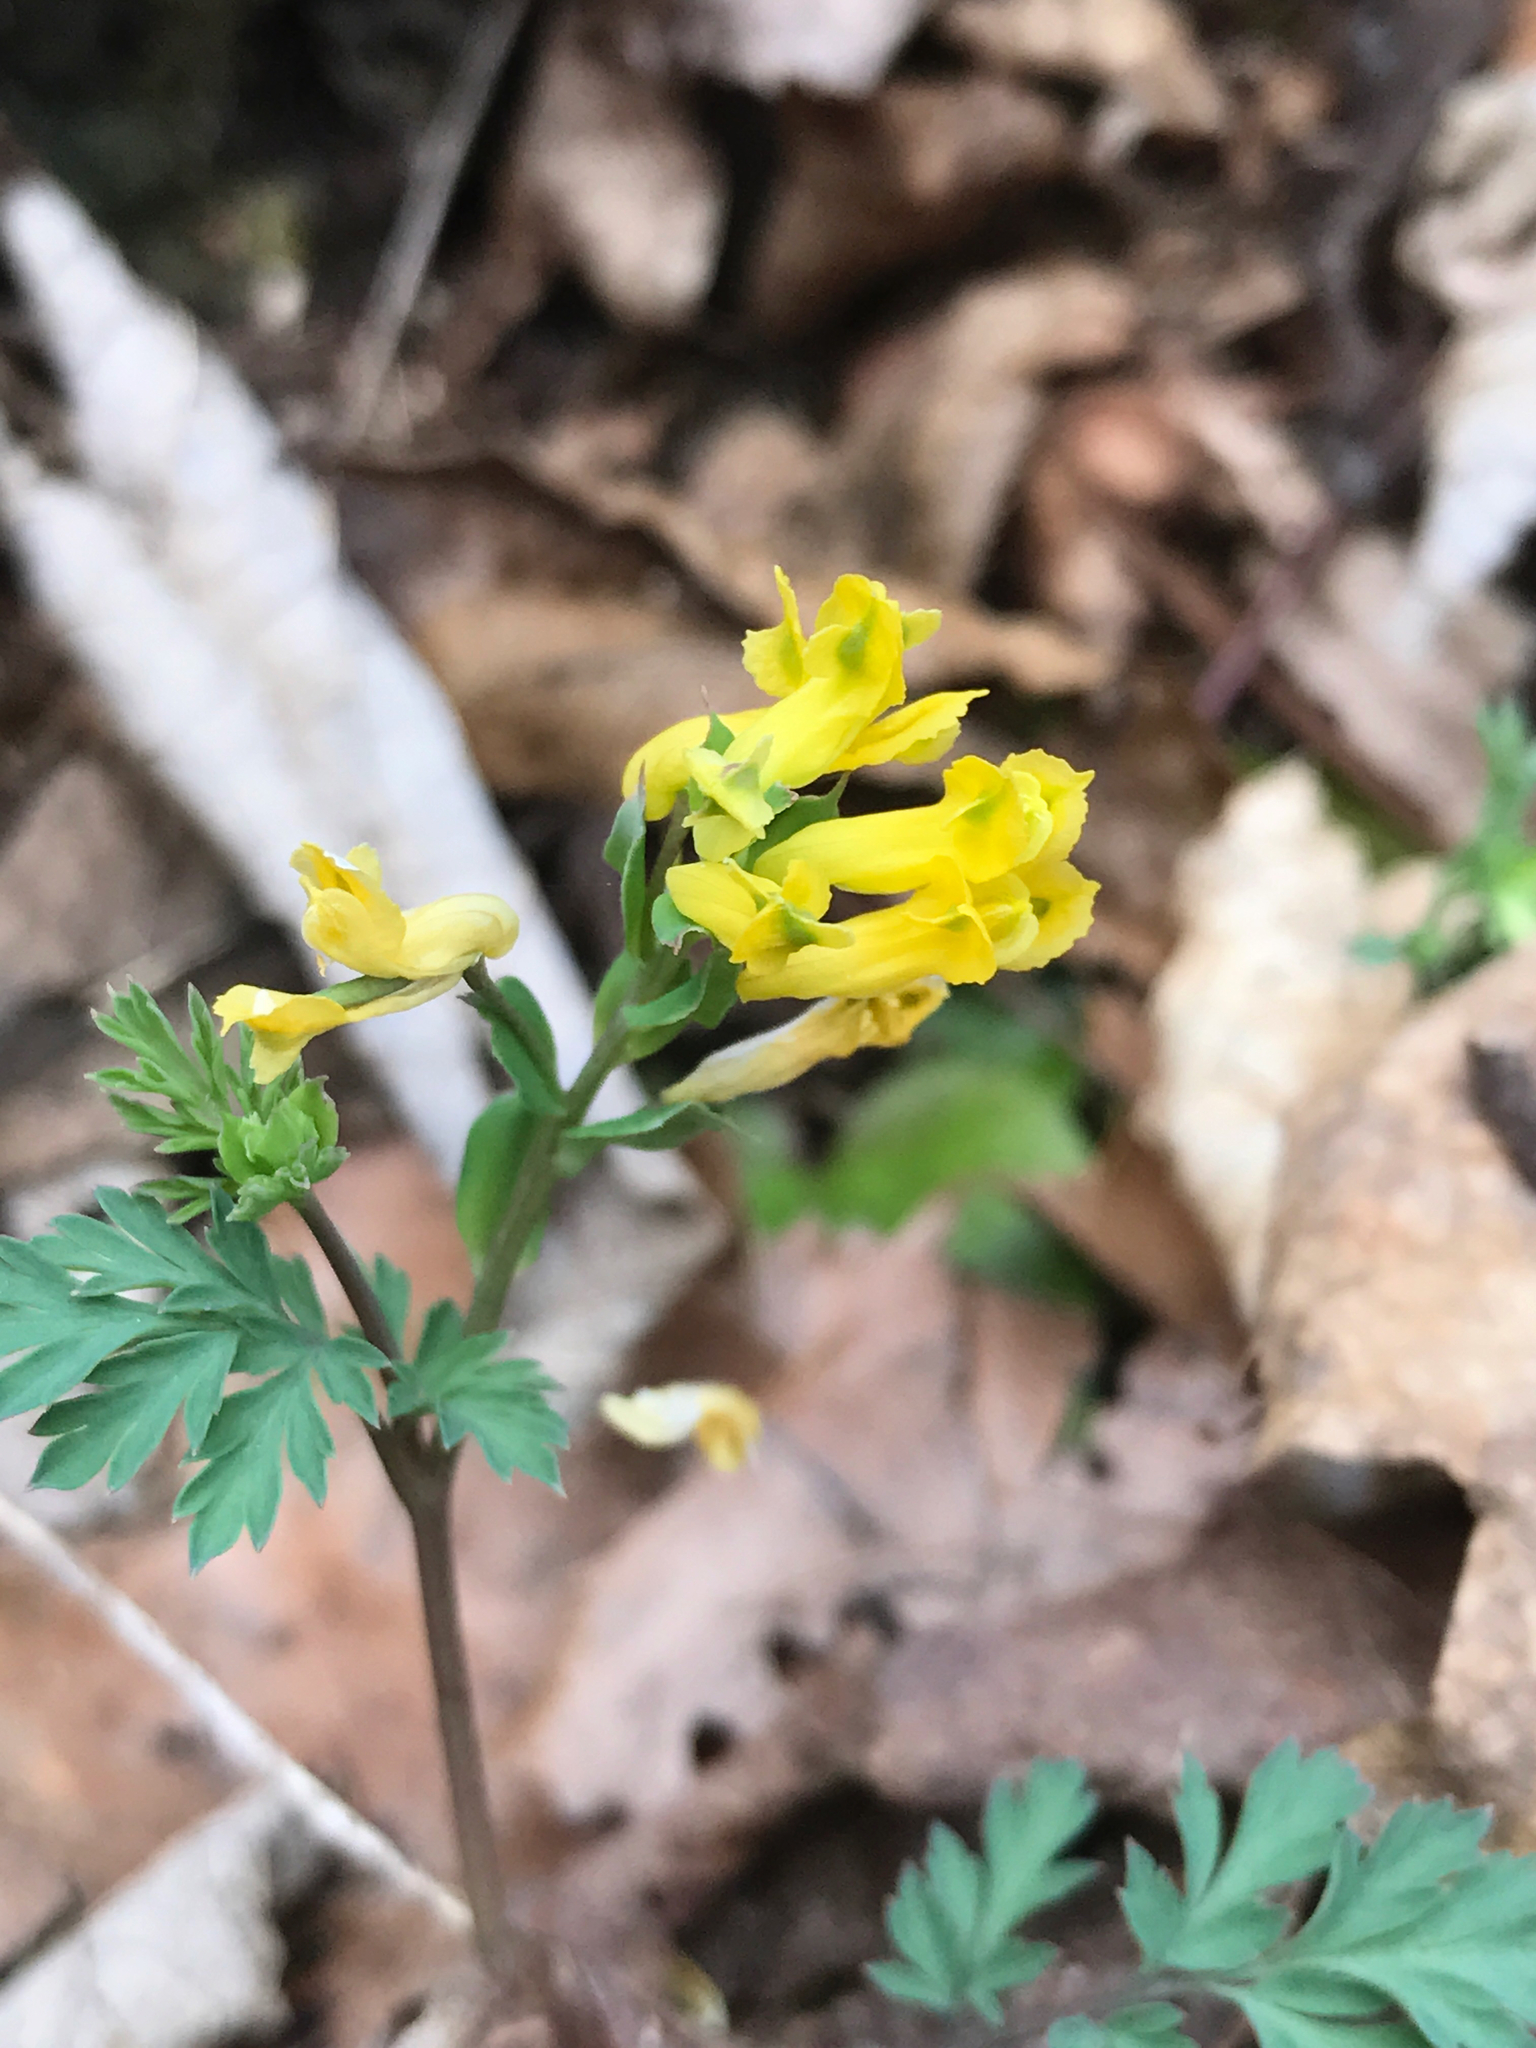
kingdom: Plantae
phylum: Tracheophyta
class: Magnoliopsida
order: Ranunculales
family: Papaveraceae
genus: Corydalis
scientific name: Corydalis flavula
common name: Yellow corydalis
